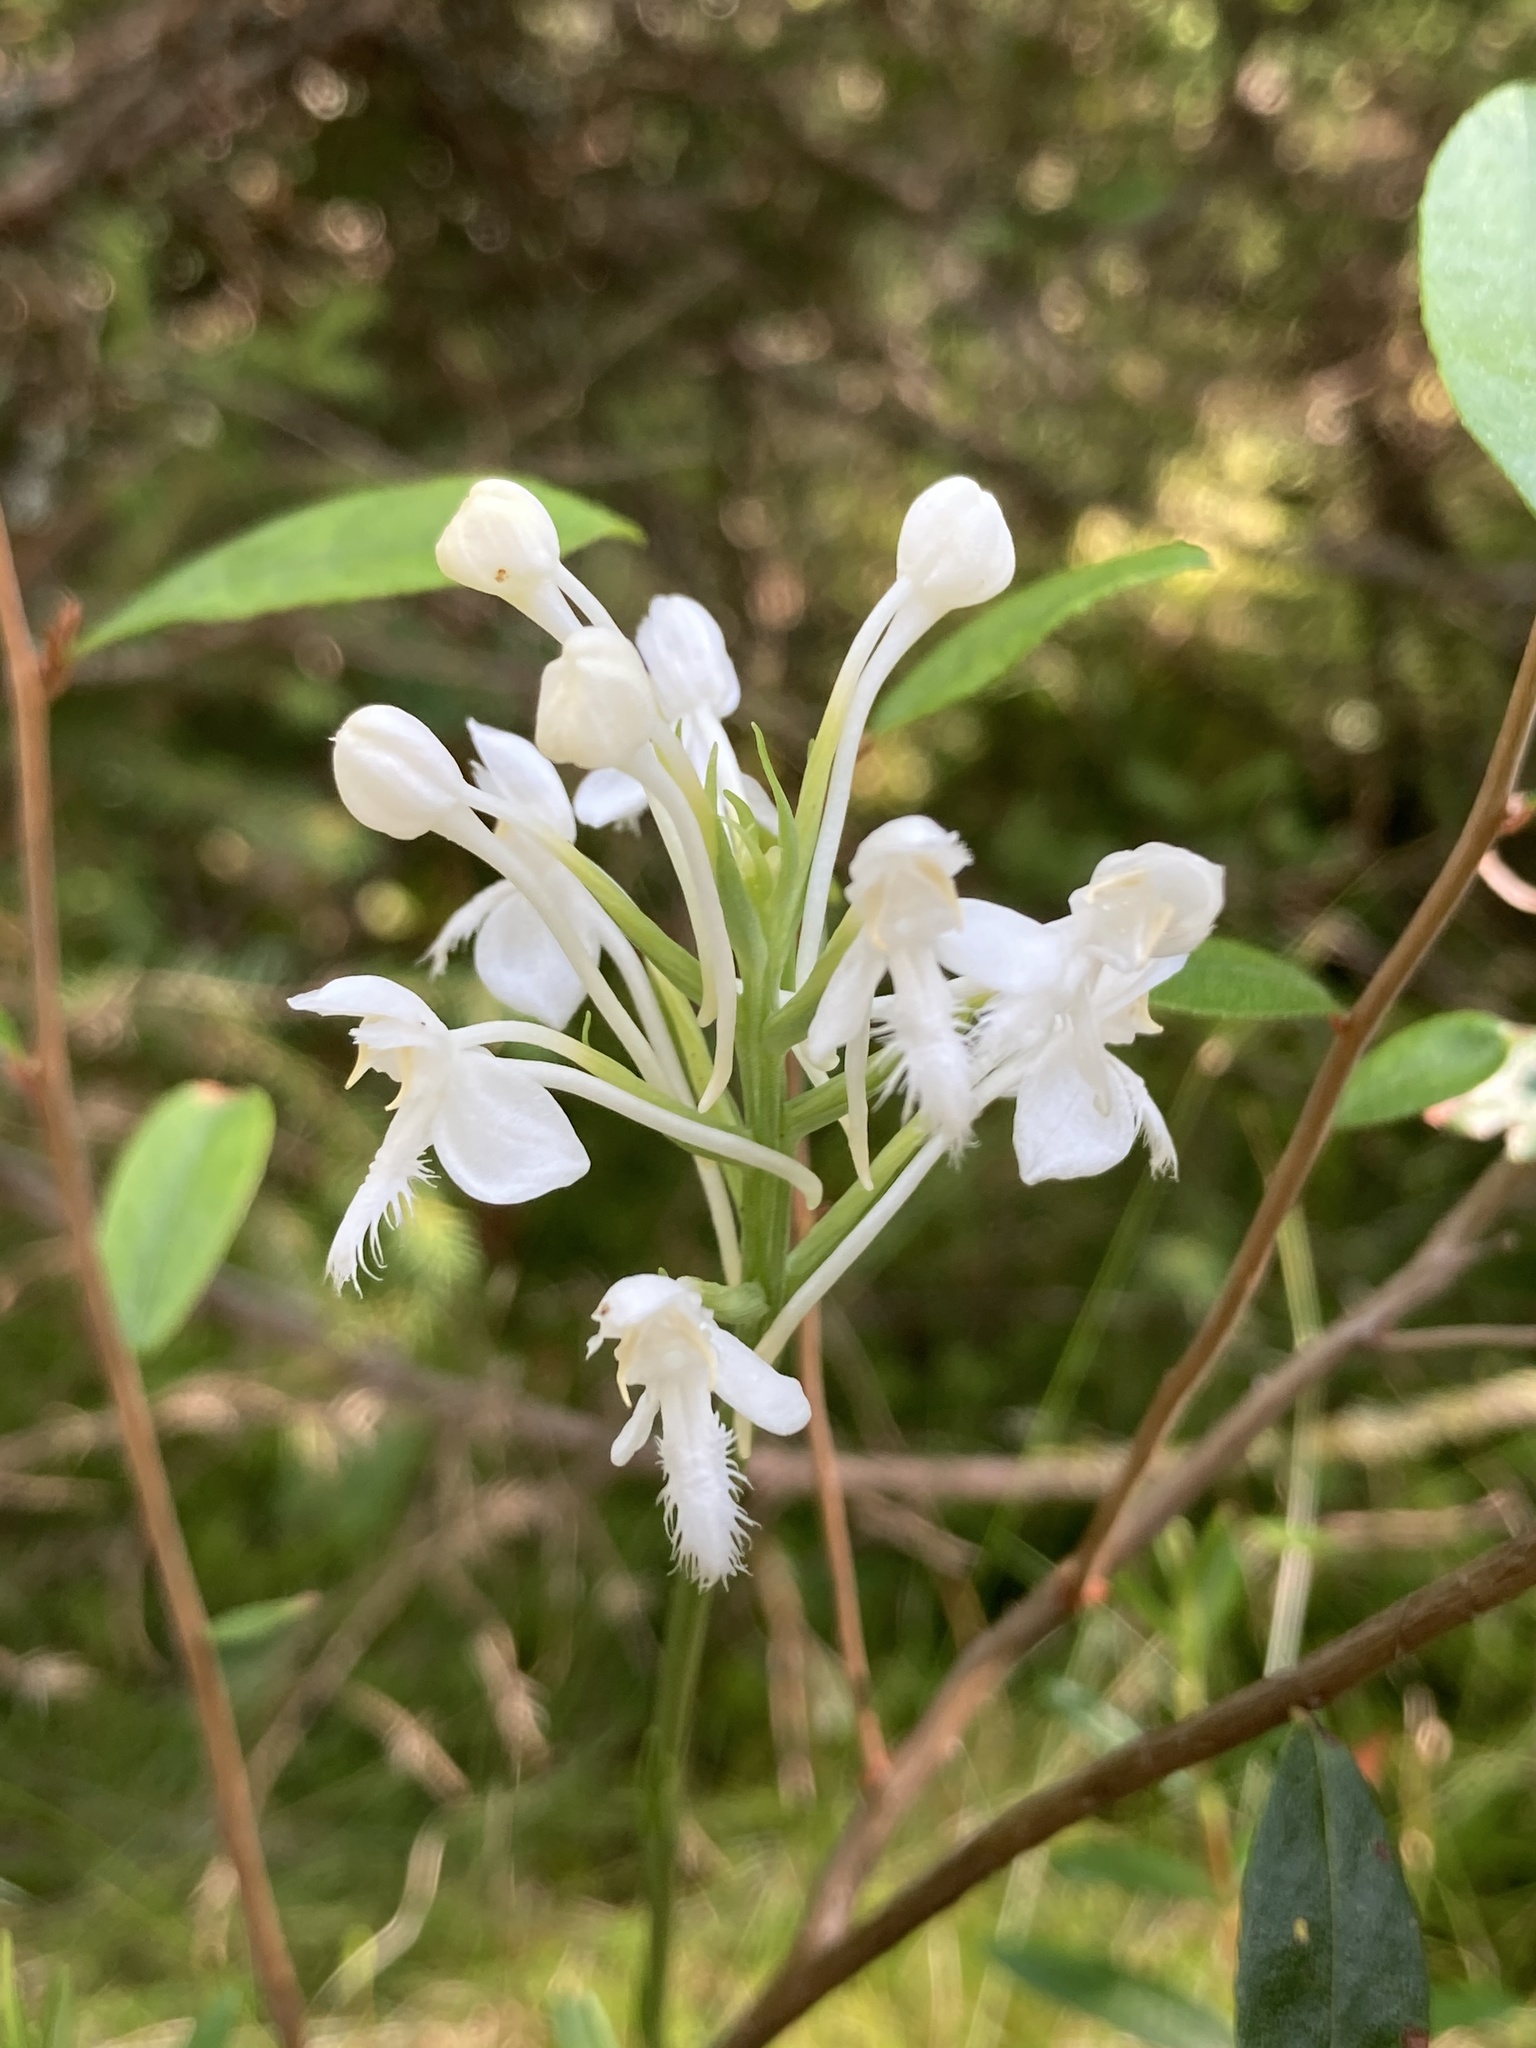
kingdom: Plantae
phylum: Tracheophyta
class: Liliopsida
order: Asparagales
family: Orchidaceae
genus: Platanthera
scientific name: Platanthera blephariglottis
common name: White fringed orchid
